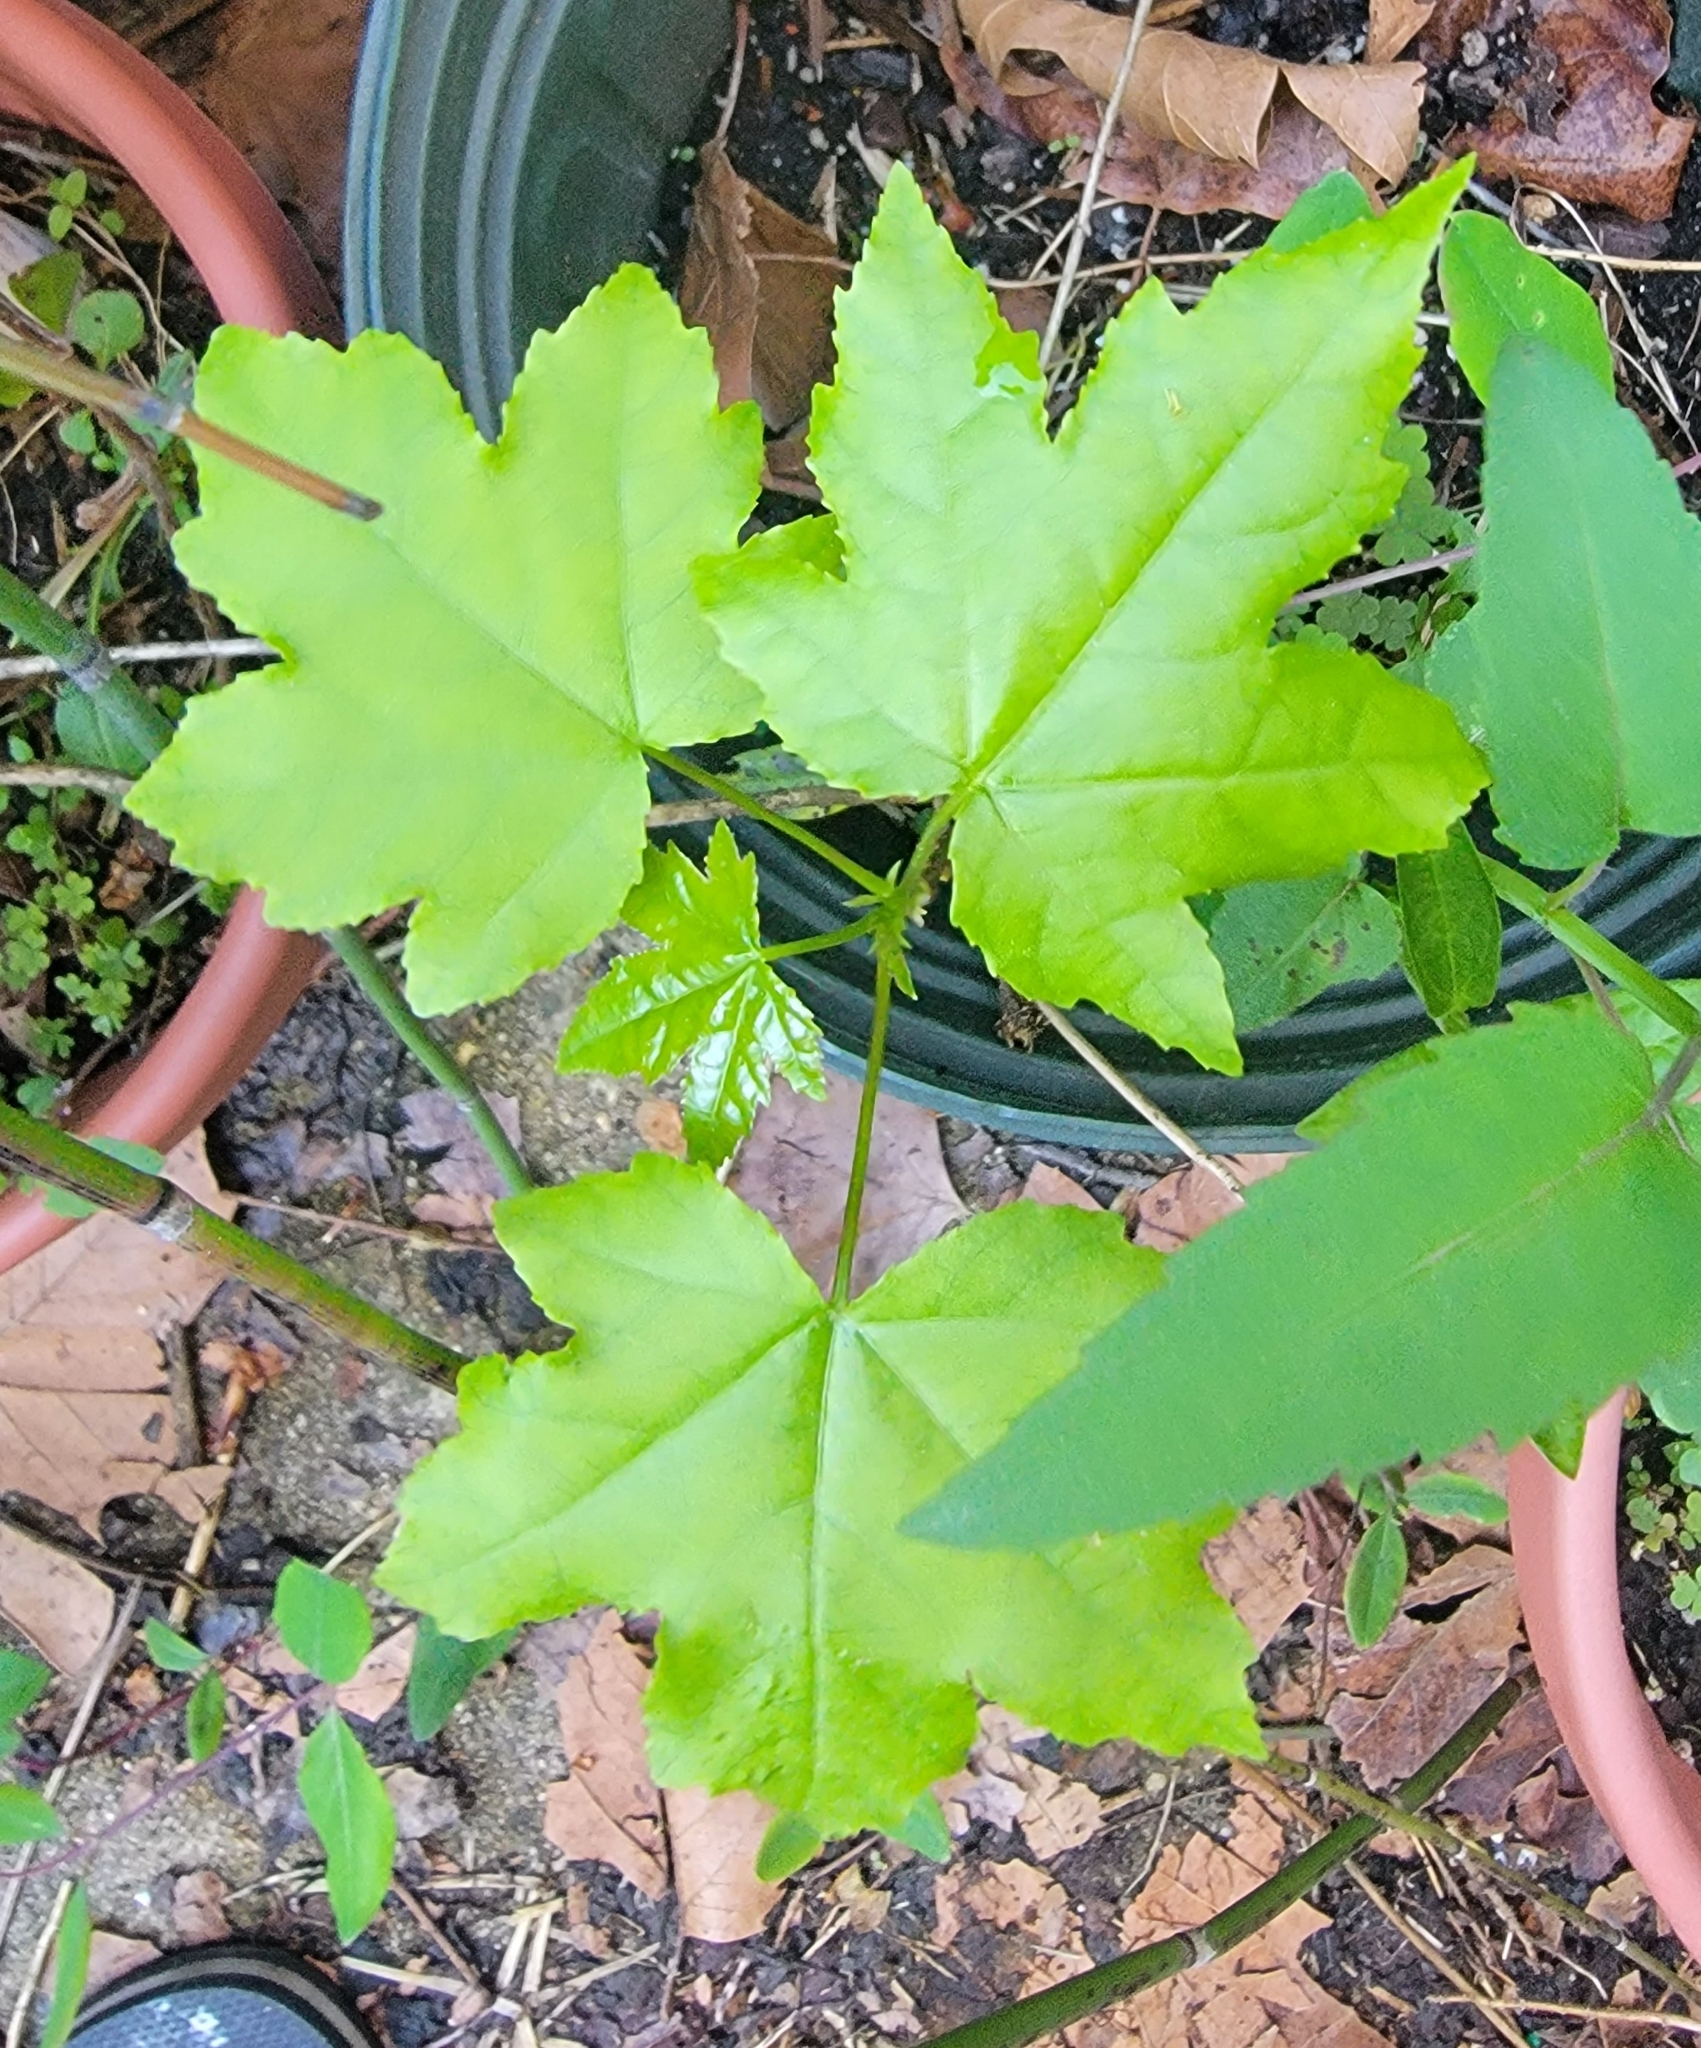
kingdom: Plantae
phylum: Tracheophyta
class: Magnoliopsida
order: Saxifragales
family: Altingiaceae
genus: Liquidambar
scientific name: Liquidambar styraciflua
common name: Sweet gum
